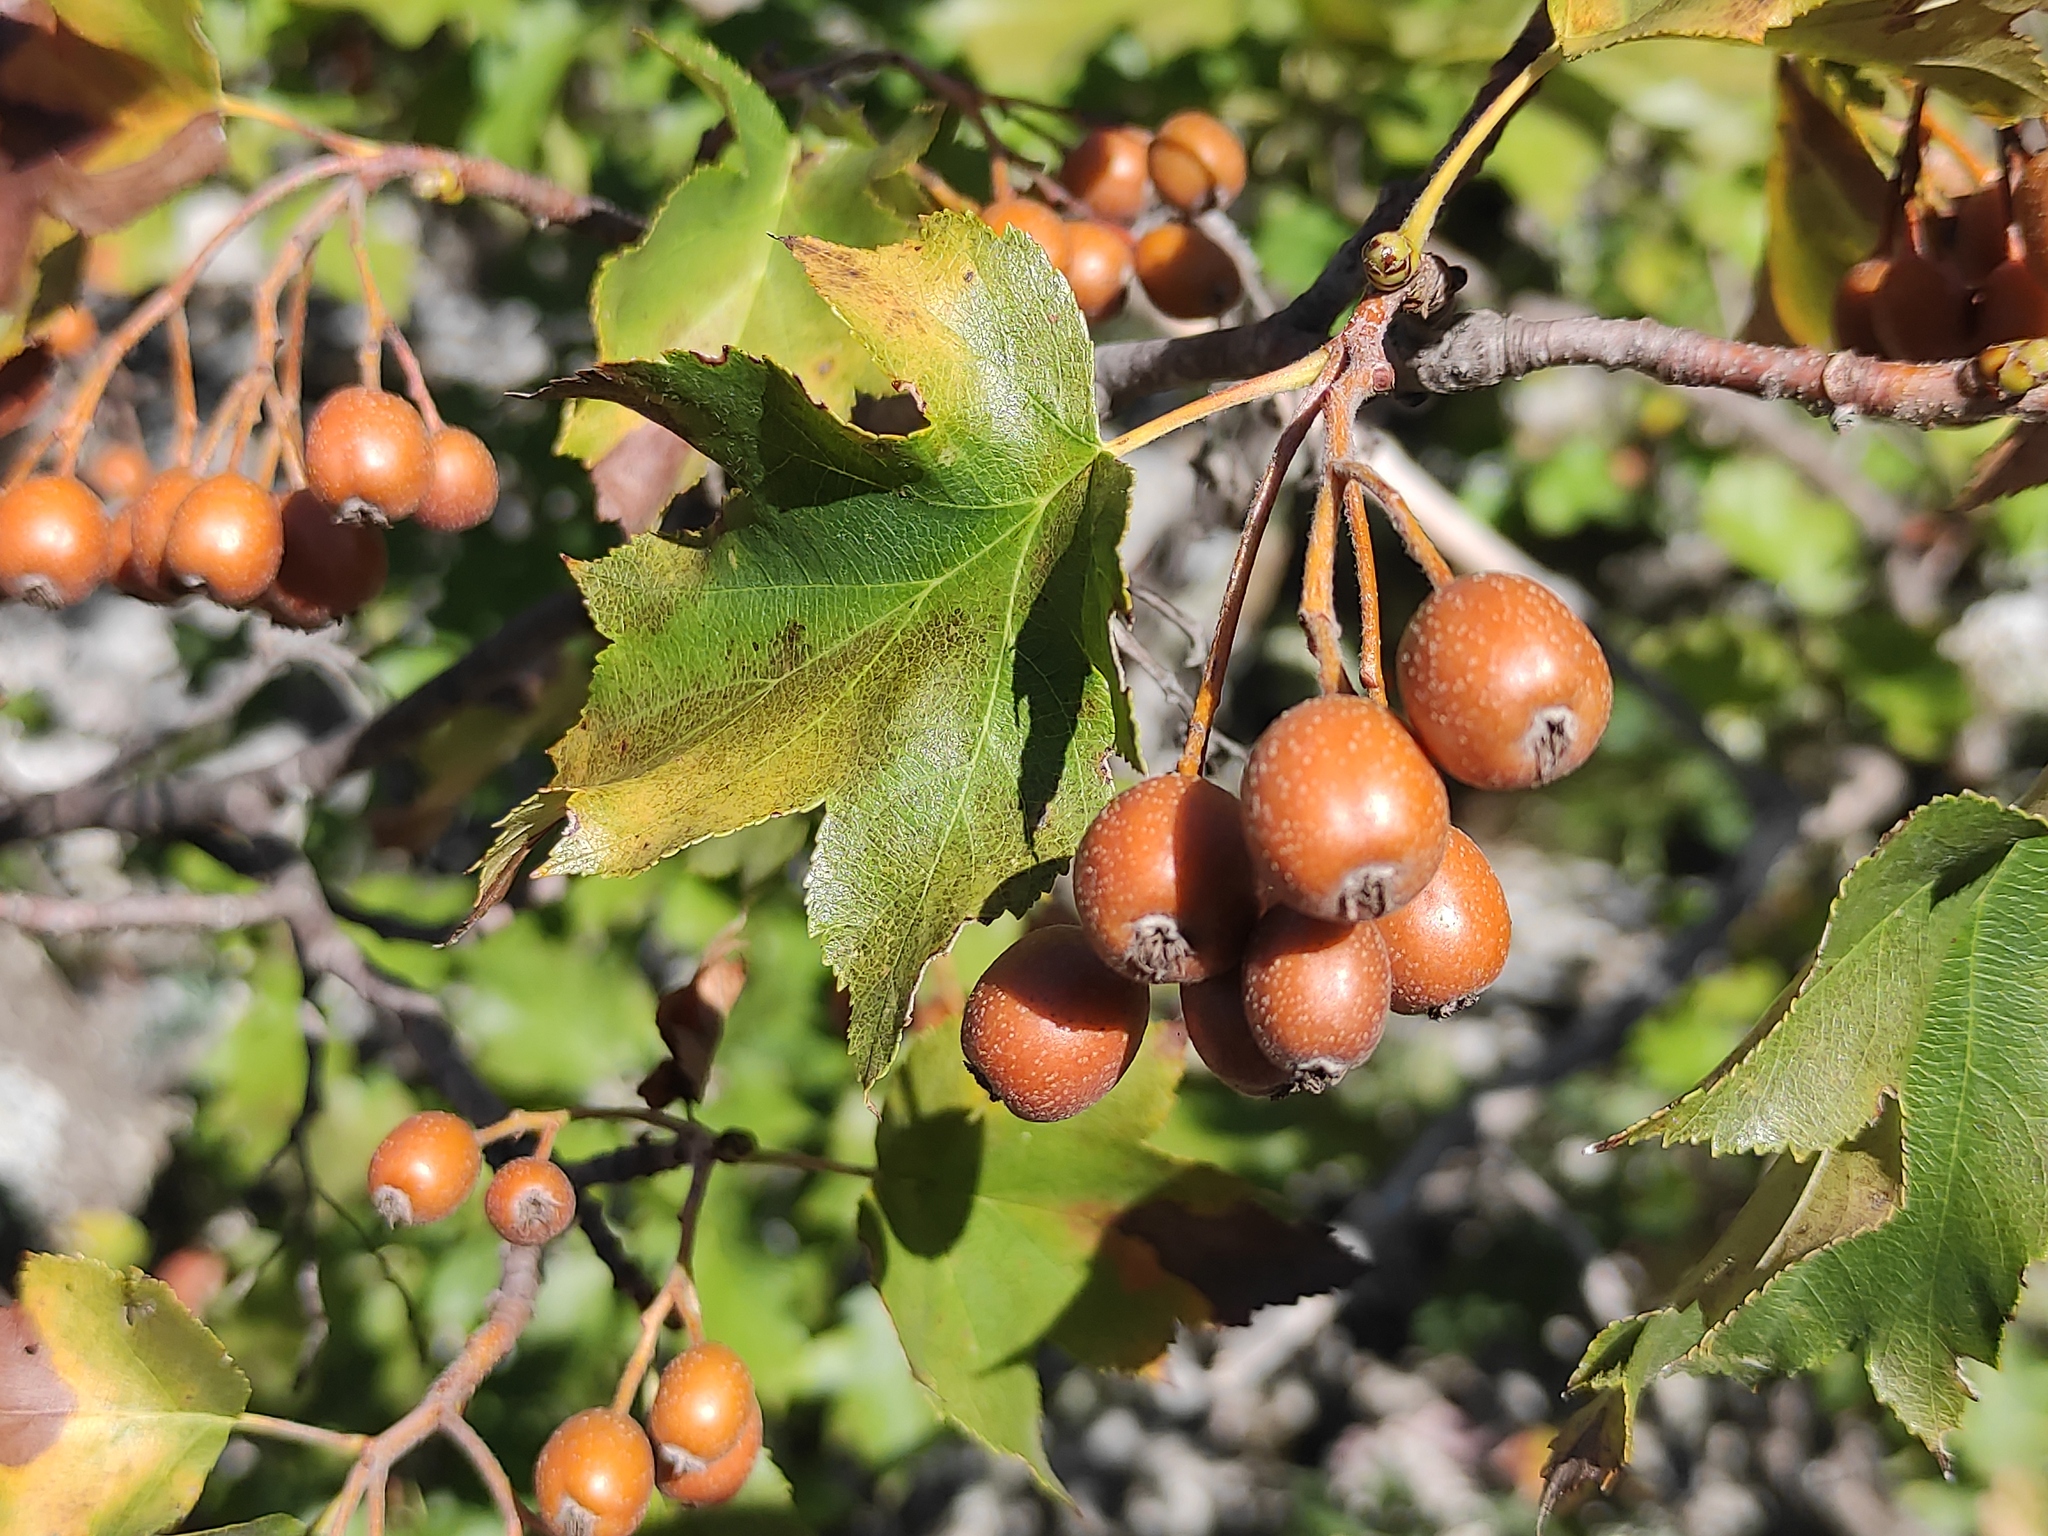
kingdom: Plantae
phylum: Tracheophyta
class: Magnoliopsida
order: Rosales
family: Rosaceae
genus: Torminalis
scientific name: Torminalis glaberrima
